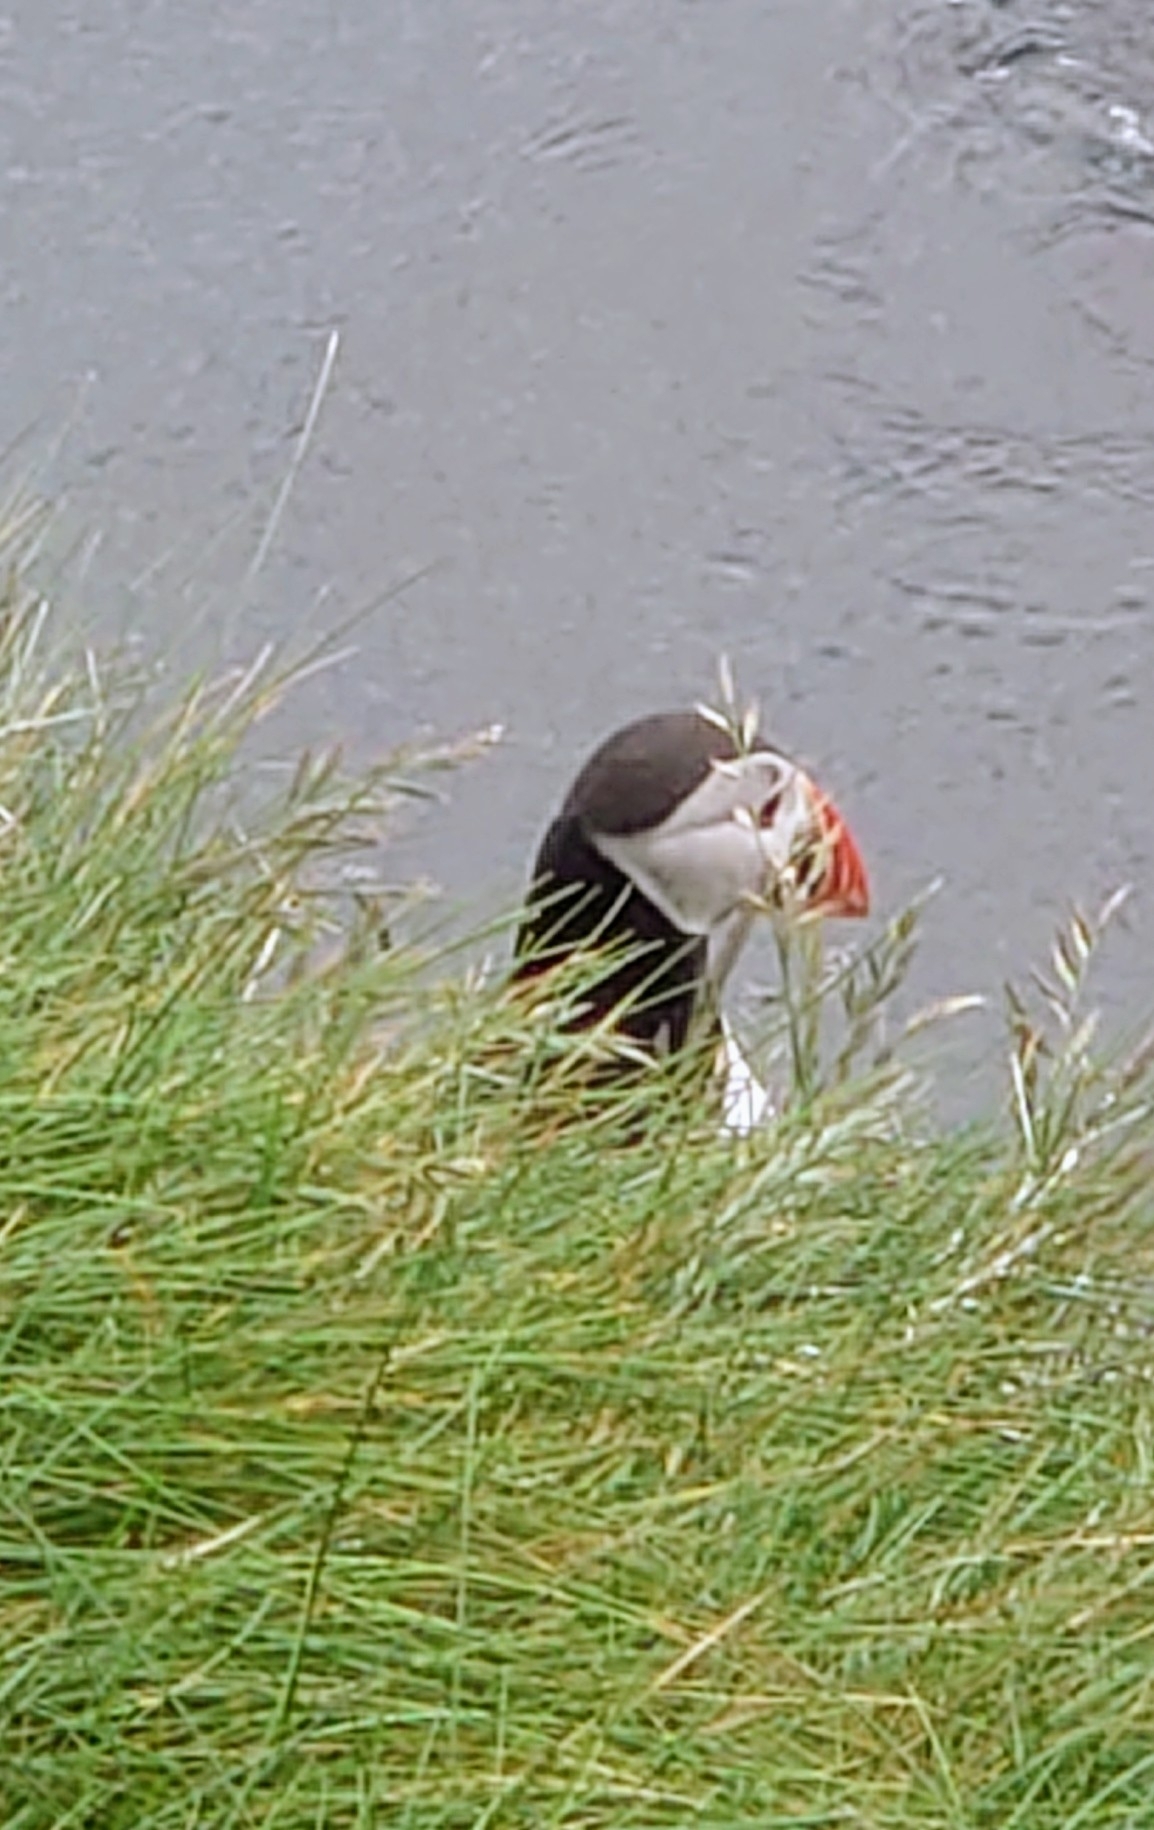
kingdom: Animalia
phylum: Chordata
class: Aves
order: Charadriiformes
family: Alcidae
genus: Fratercula
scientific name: Fratercula arctica
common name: Atlantic puffin
